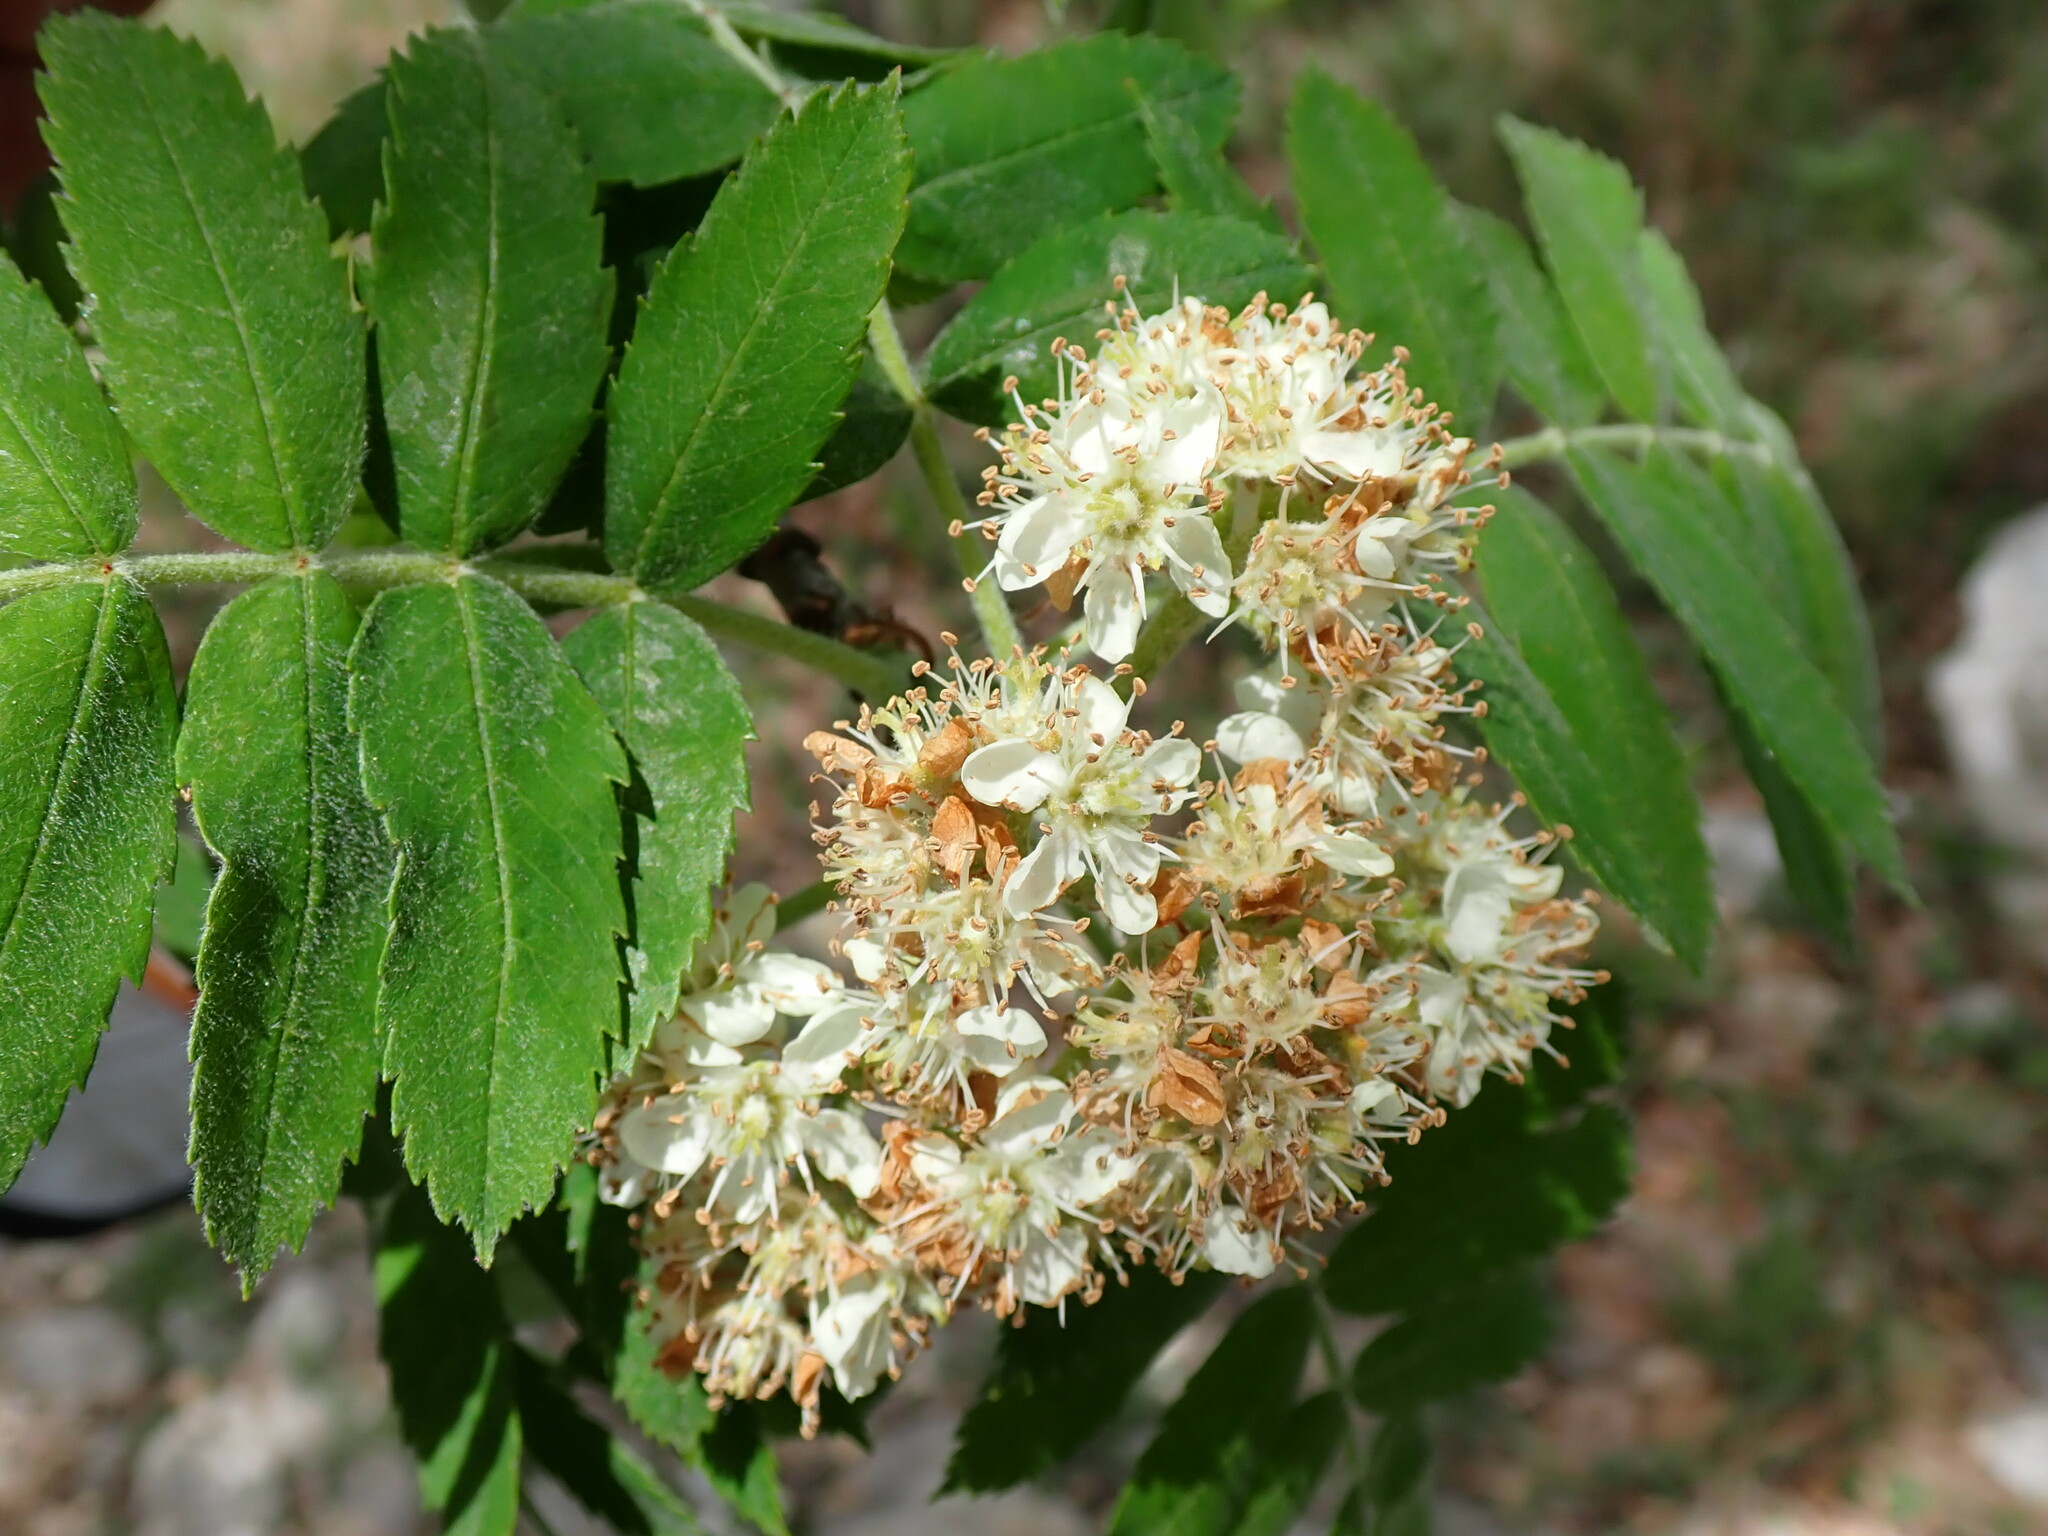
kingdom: Plantae
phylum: Tracheophyta
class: Magnoliopsida
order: Rosales
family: Rosaceae
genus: Sorbus
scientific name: Sorbus aucuparia
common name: Rowan
